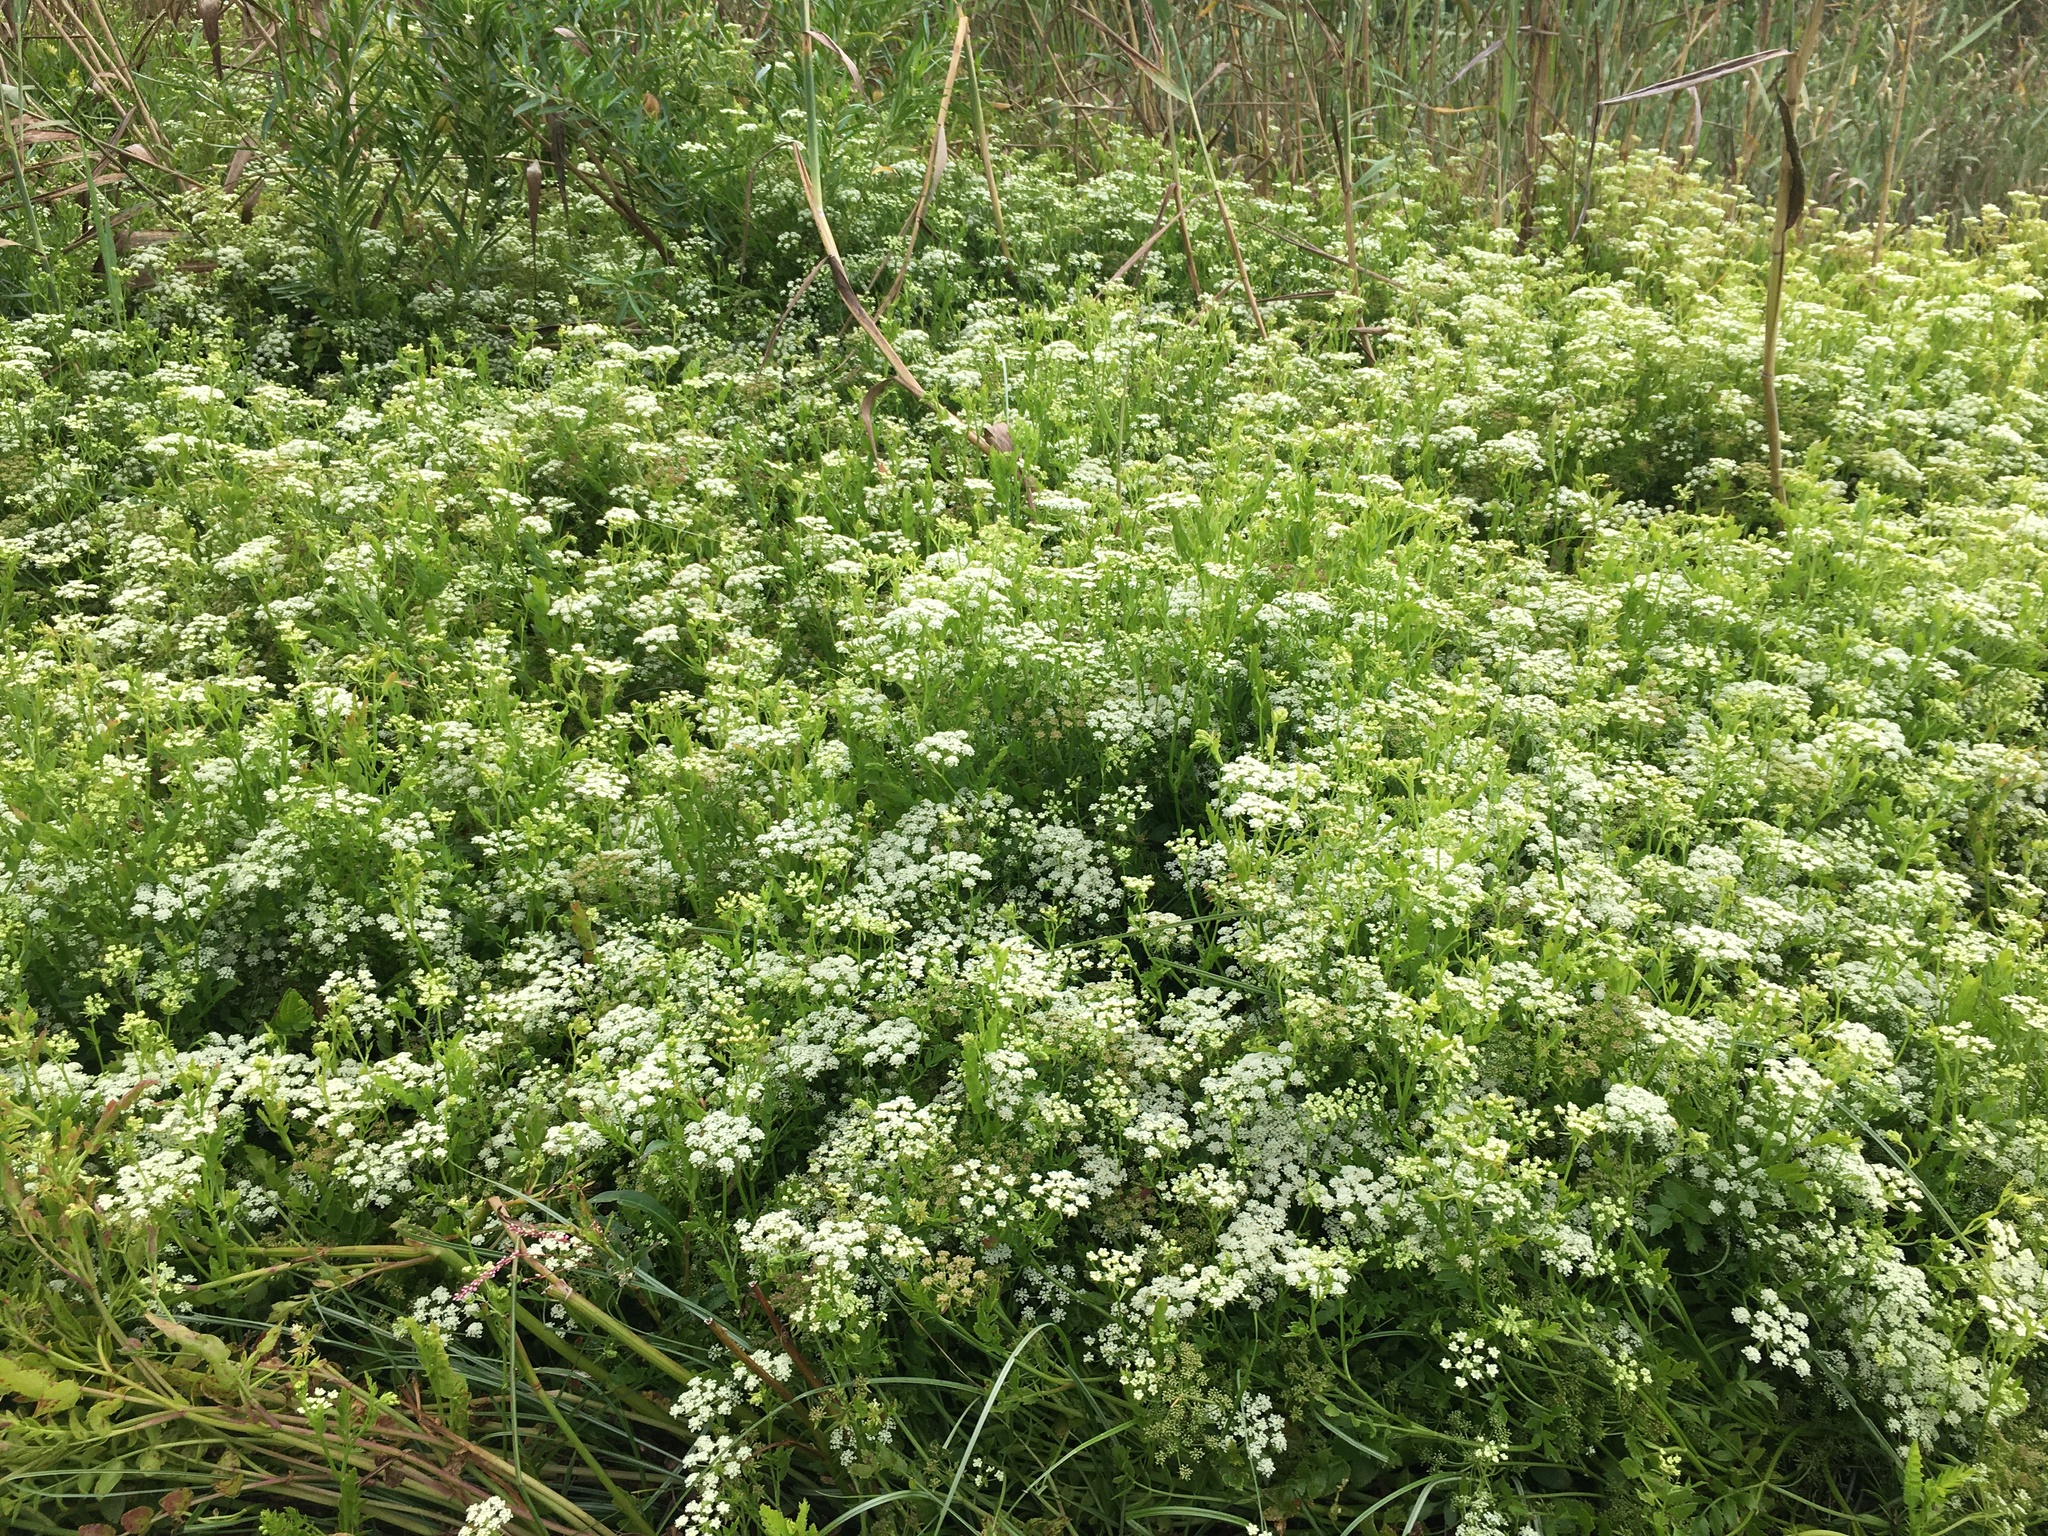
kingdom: Plantae
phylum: Tracheophyta
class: Magnoliopsida
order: Apiales
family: Apiaceae
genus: Berula
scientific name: Berula thunbergii
